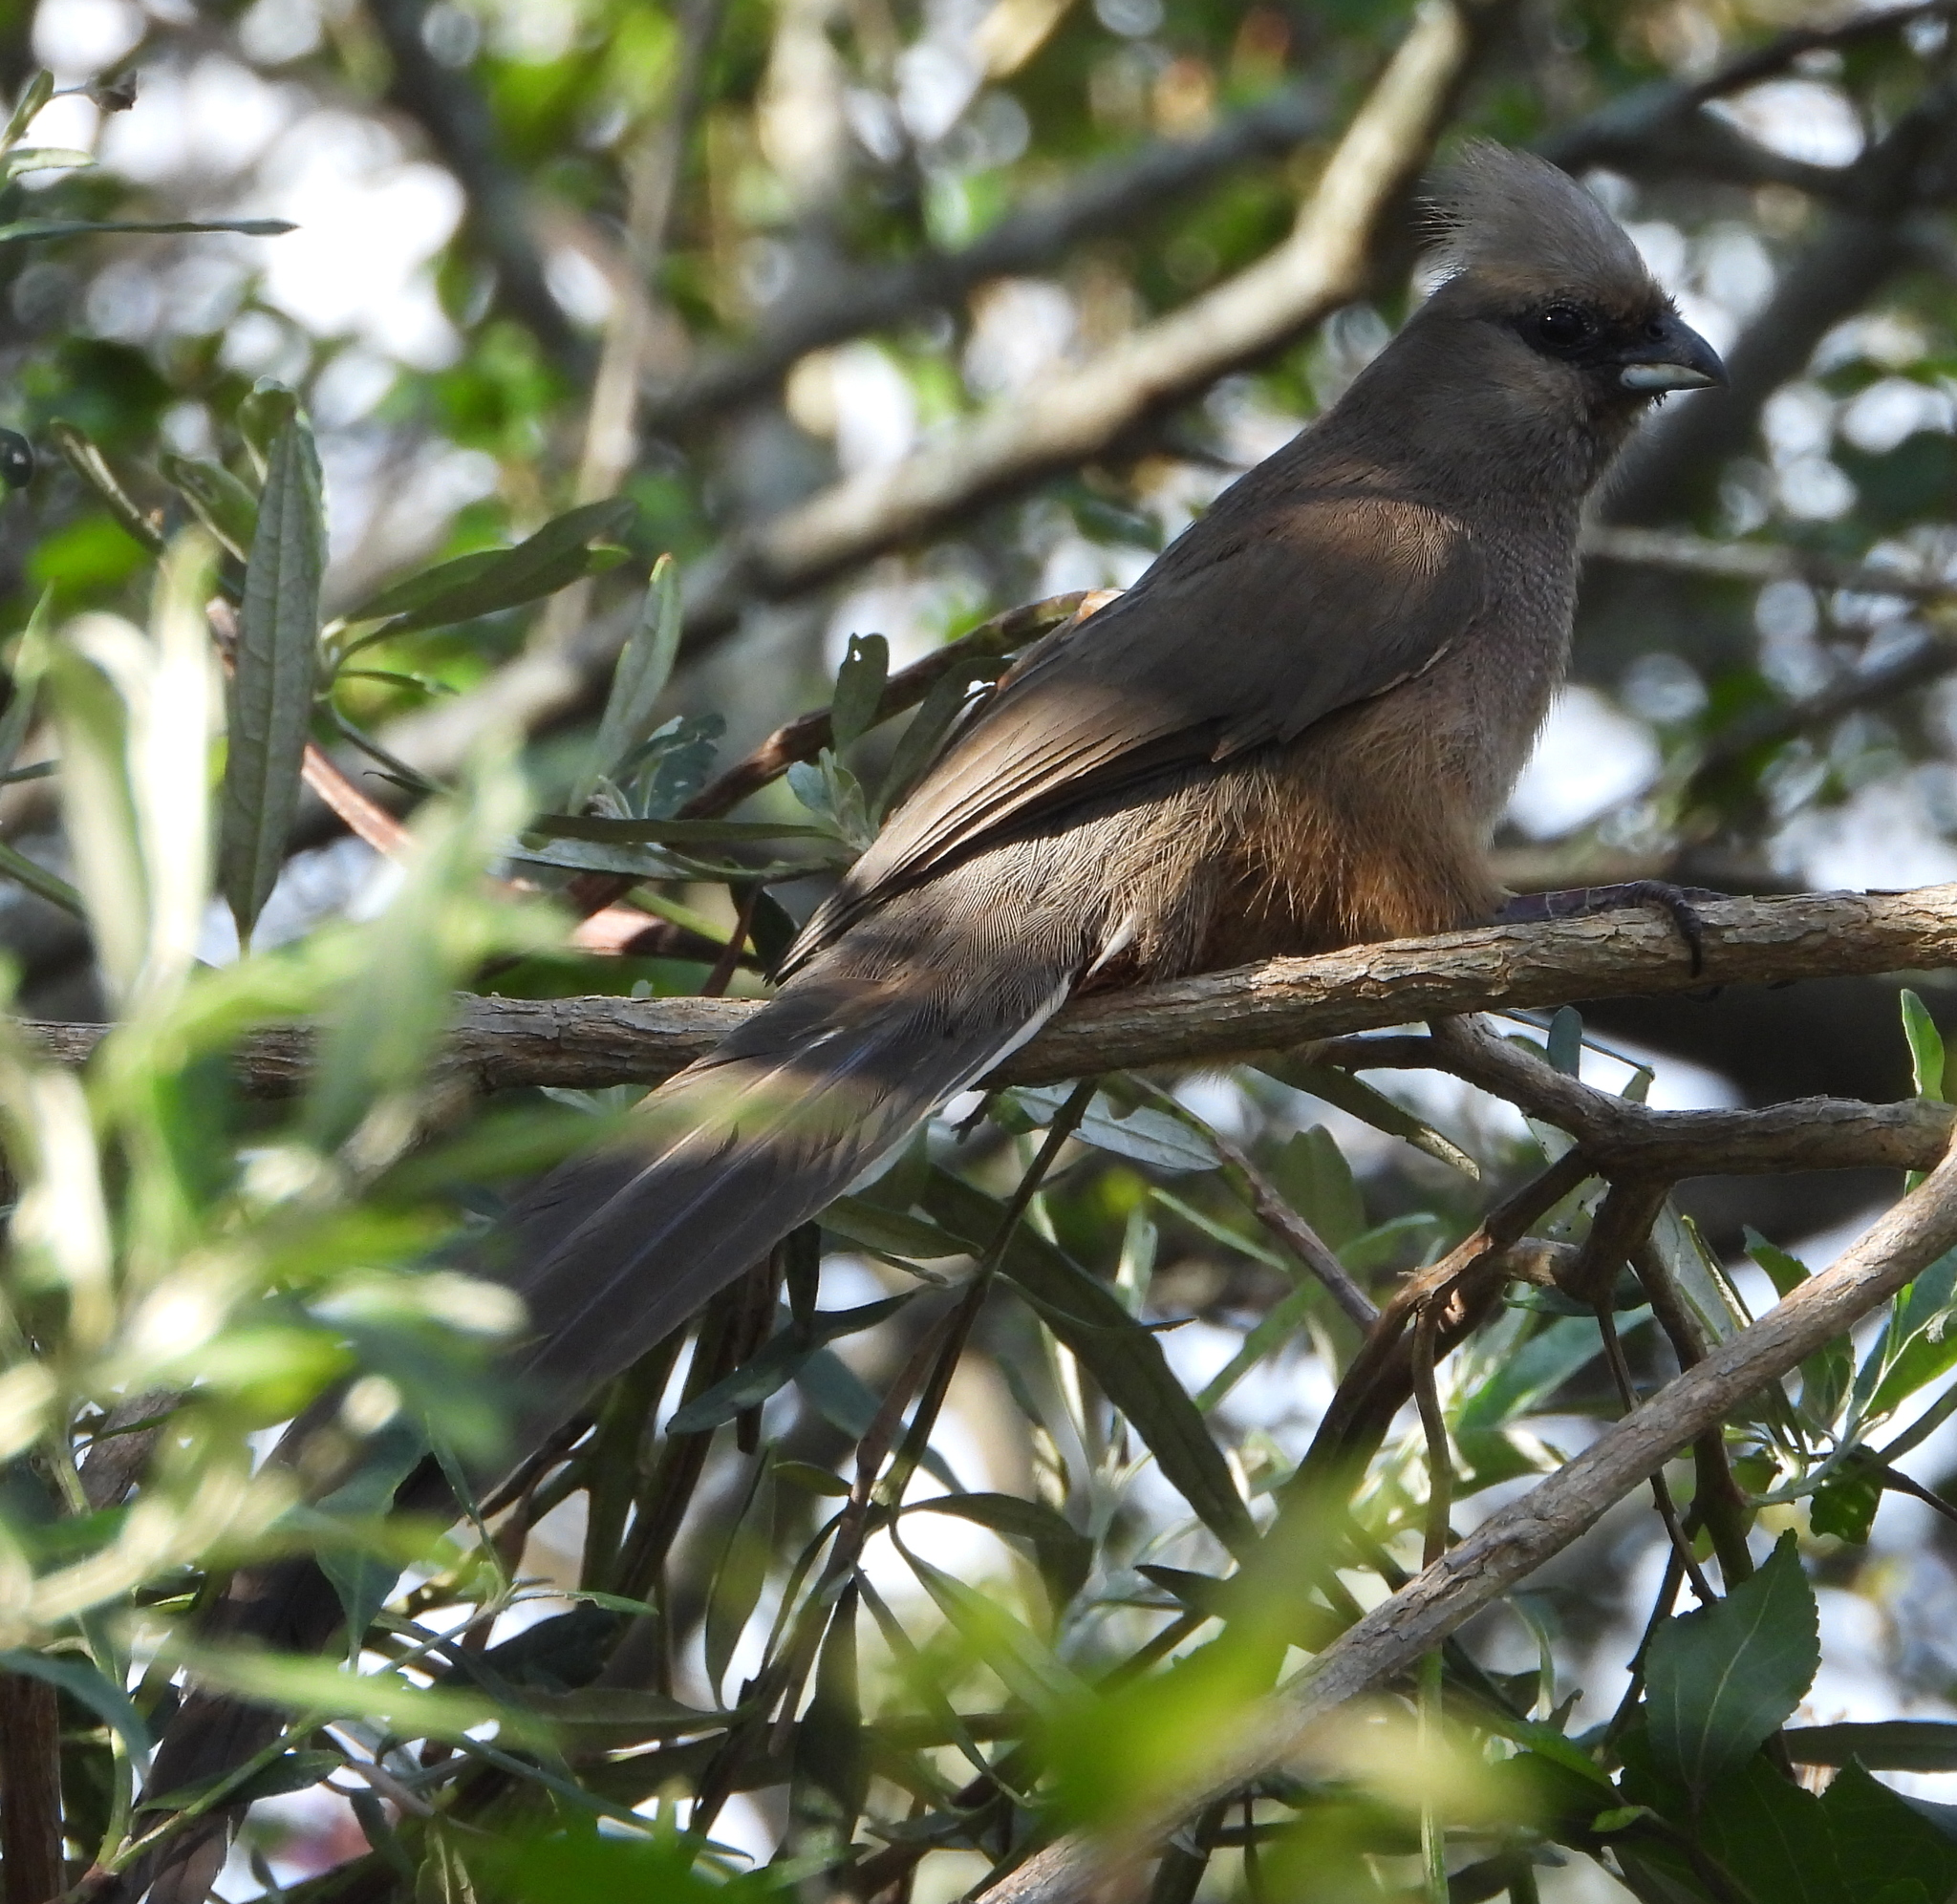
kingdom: Animalia
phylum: Chordata
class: Aves
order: Coliiformes
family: Coliidae
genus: Colius
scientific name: Colius striatus
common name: Speckled mousebird
